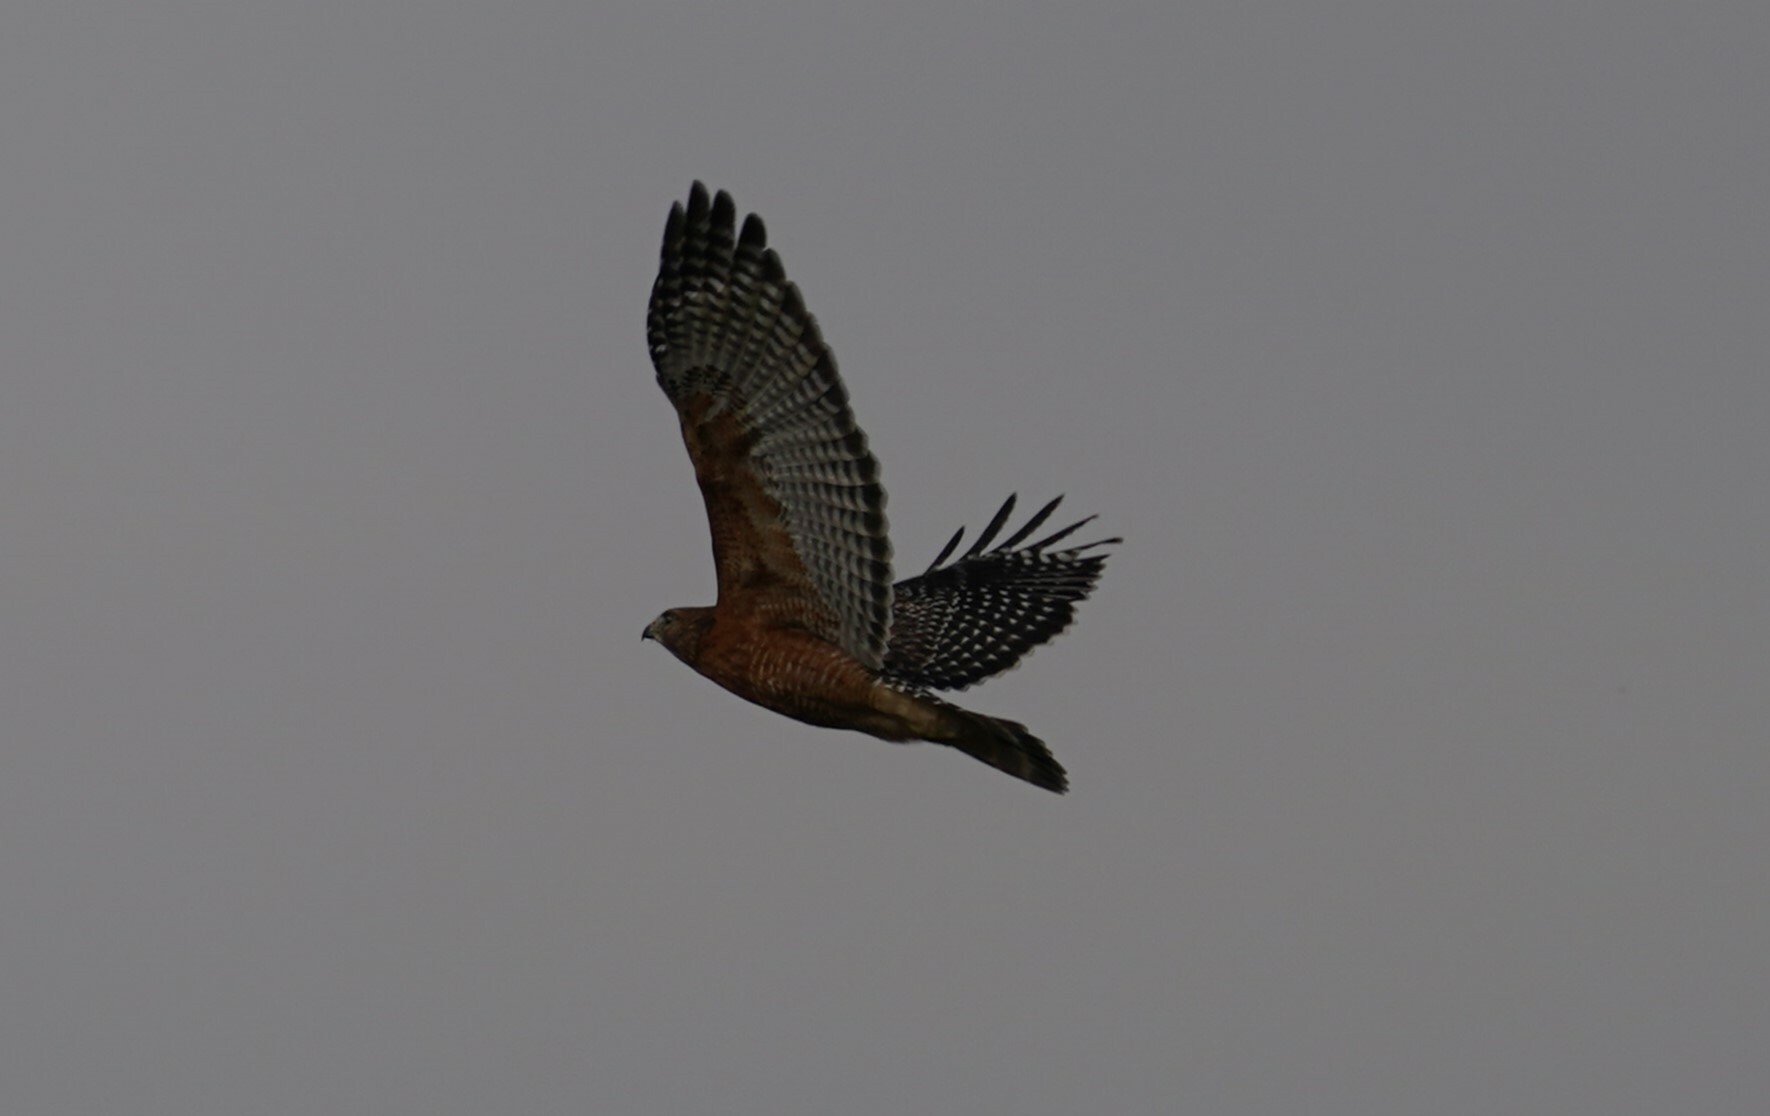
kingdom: Animalia
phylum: Chordata
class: Aves
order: Accipitriformes
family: Accipitridae
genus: Buteo
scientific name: Buteo lineatus
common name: Red-shouldered hawk
